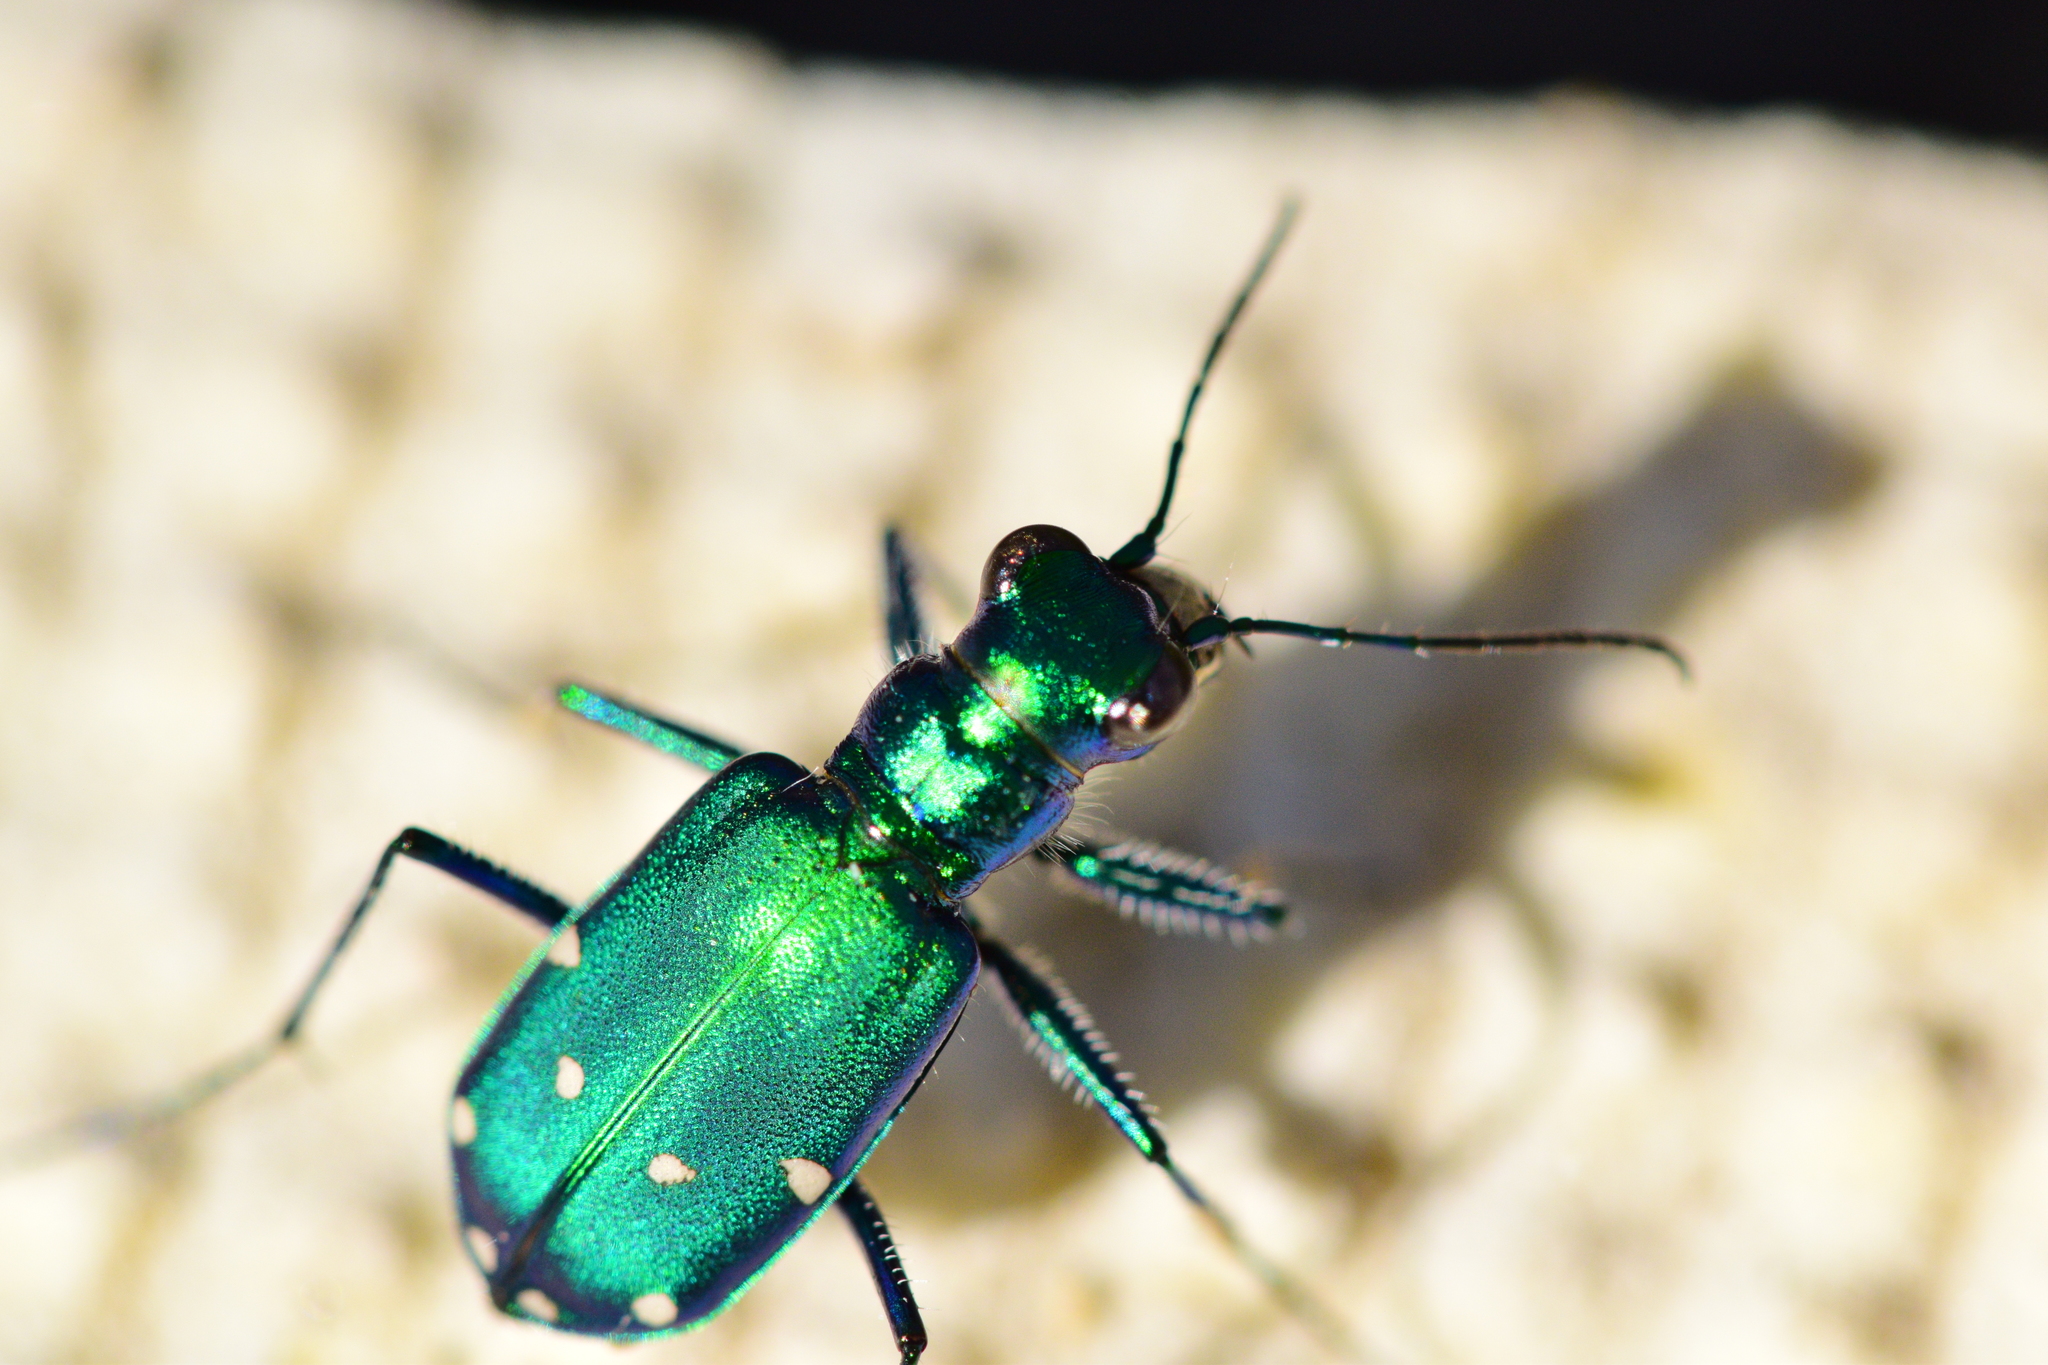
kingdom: Animalia
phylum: Arthropoda
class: Insecta
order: Coleoptera
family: Carabidae
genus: Cicindela
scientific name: Cicindela sexguttata
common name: Six-spotted tiger beetle
